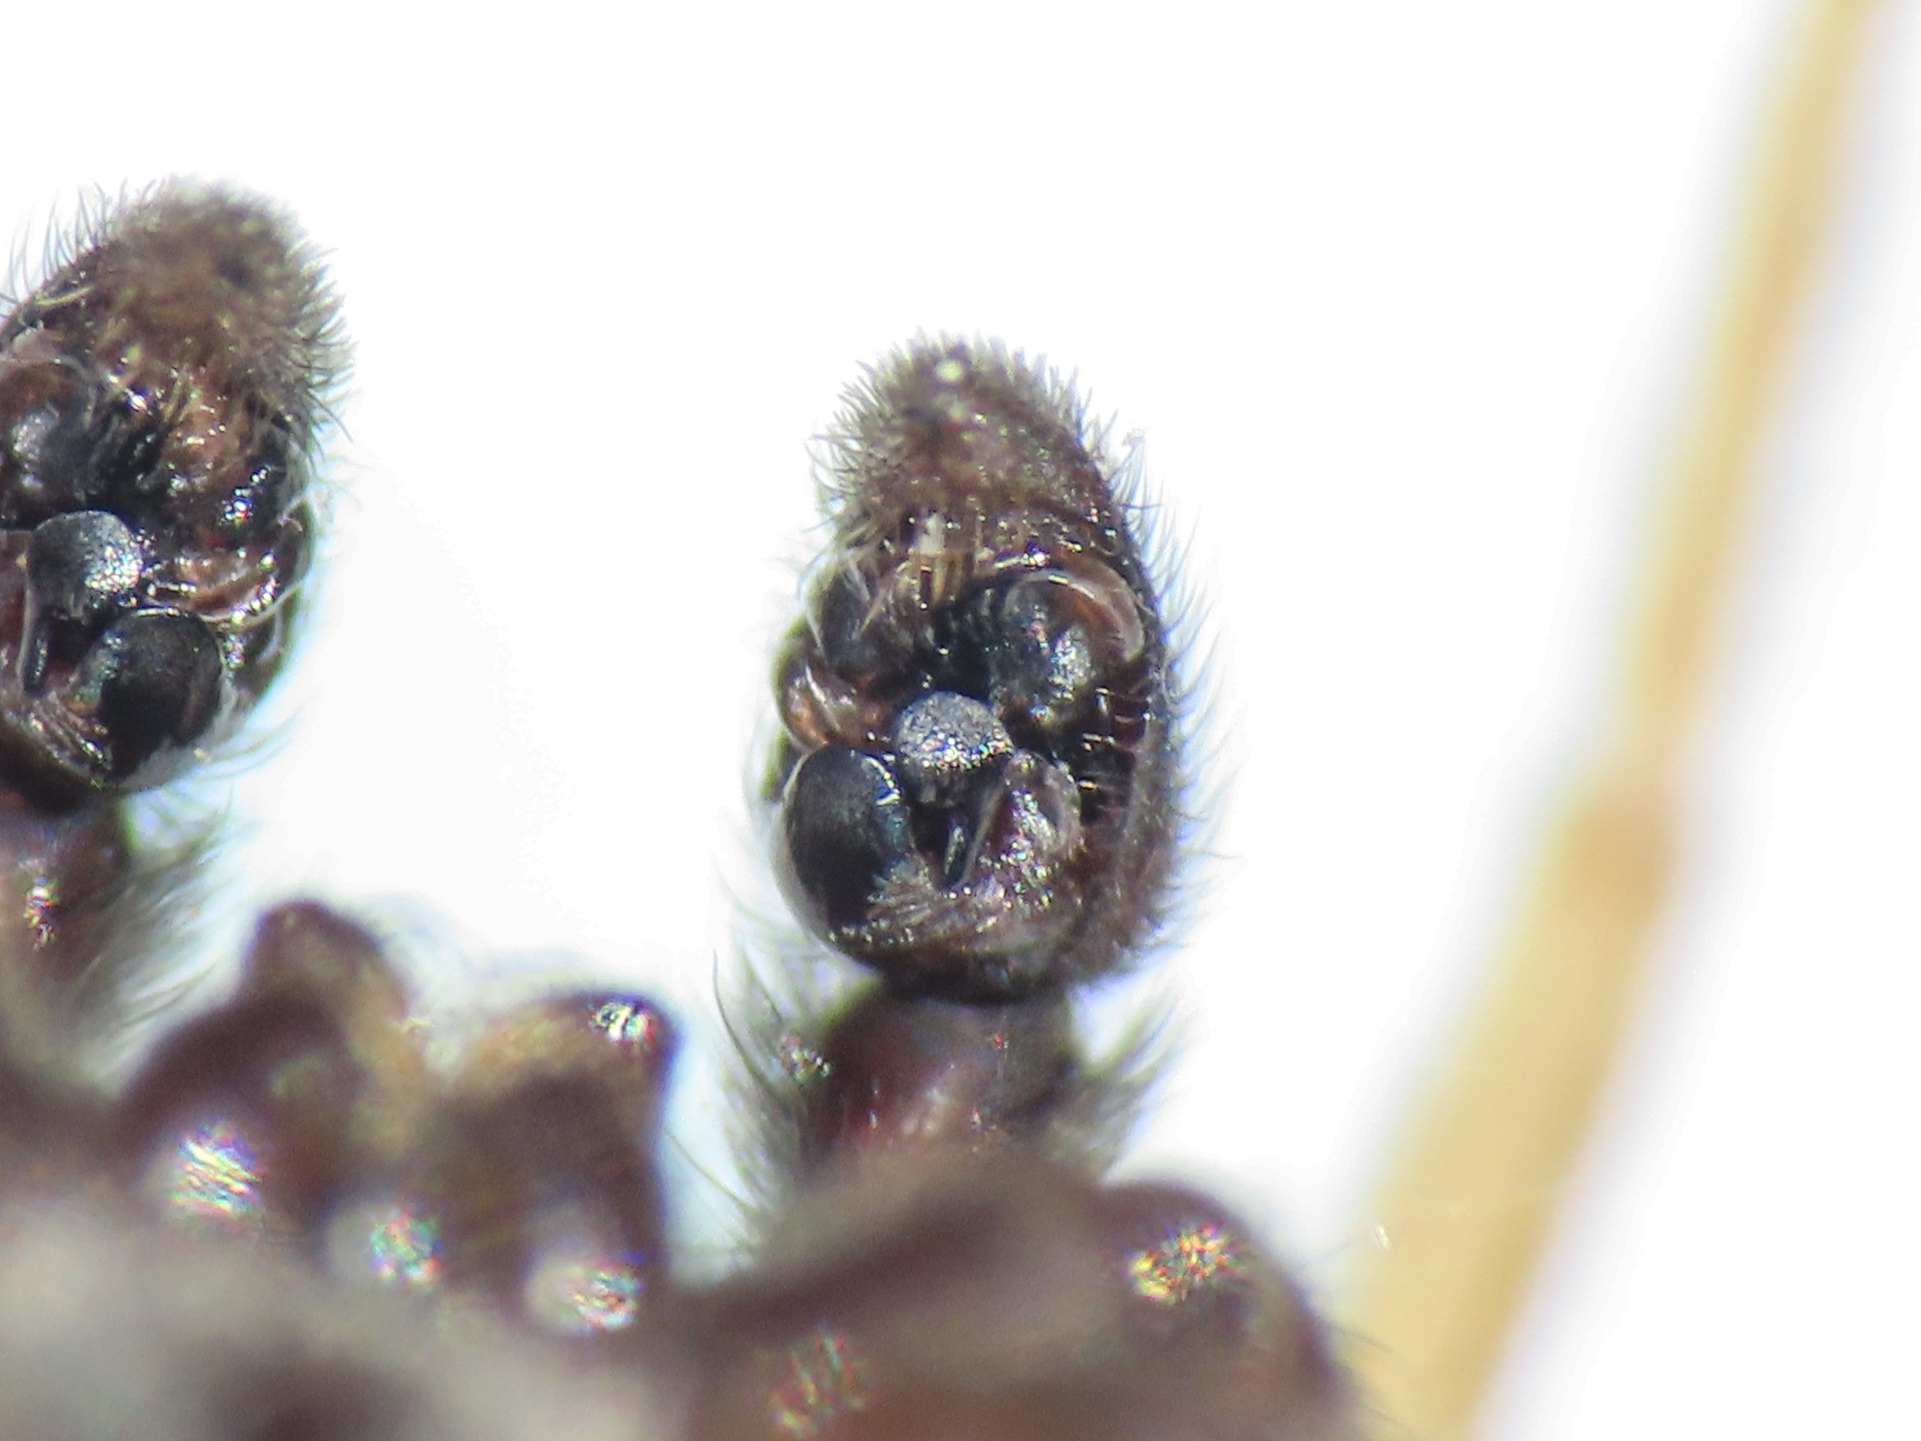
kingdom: Animalia
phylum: Arthropoda
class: Arachnida
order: Araneae
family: Lycosidae
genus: Pardosa
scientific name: Pardosa oreophila
